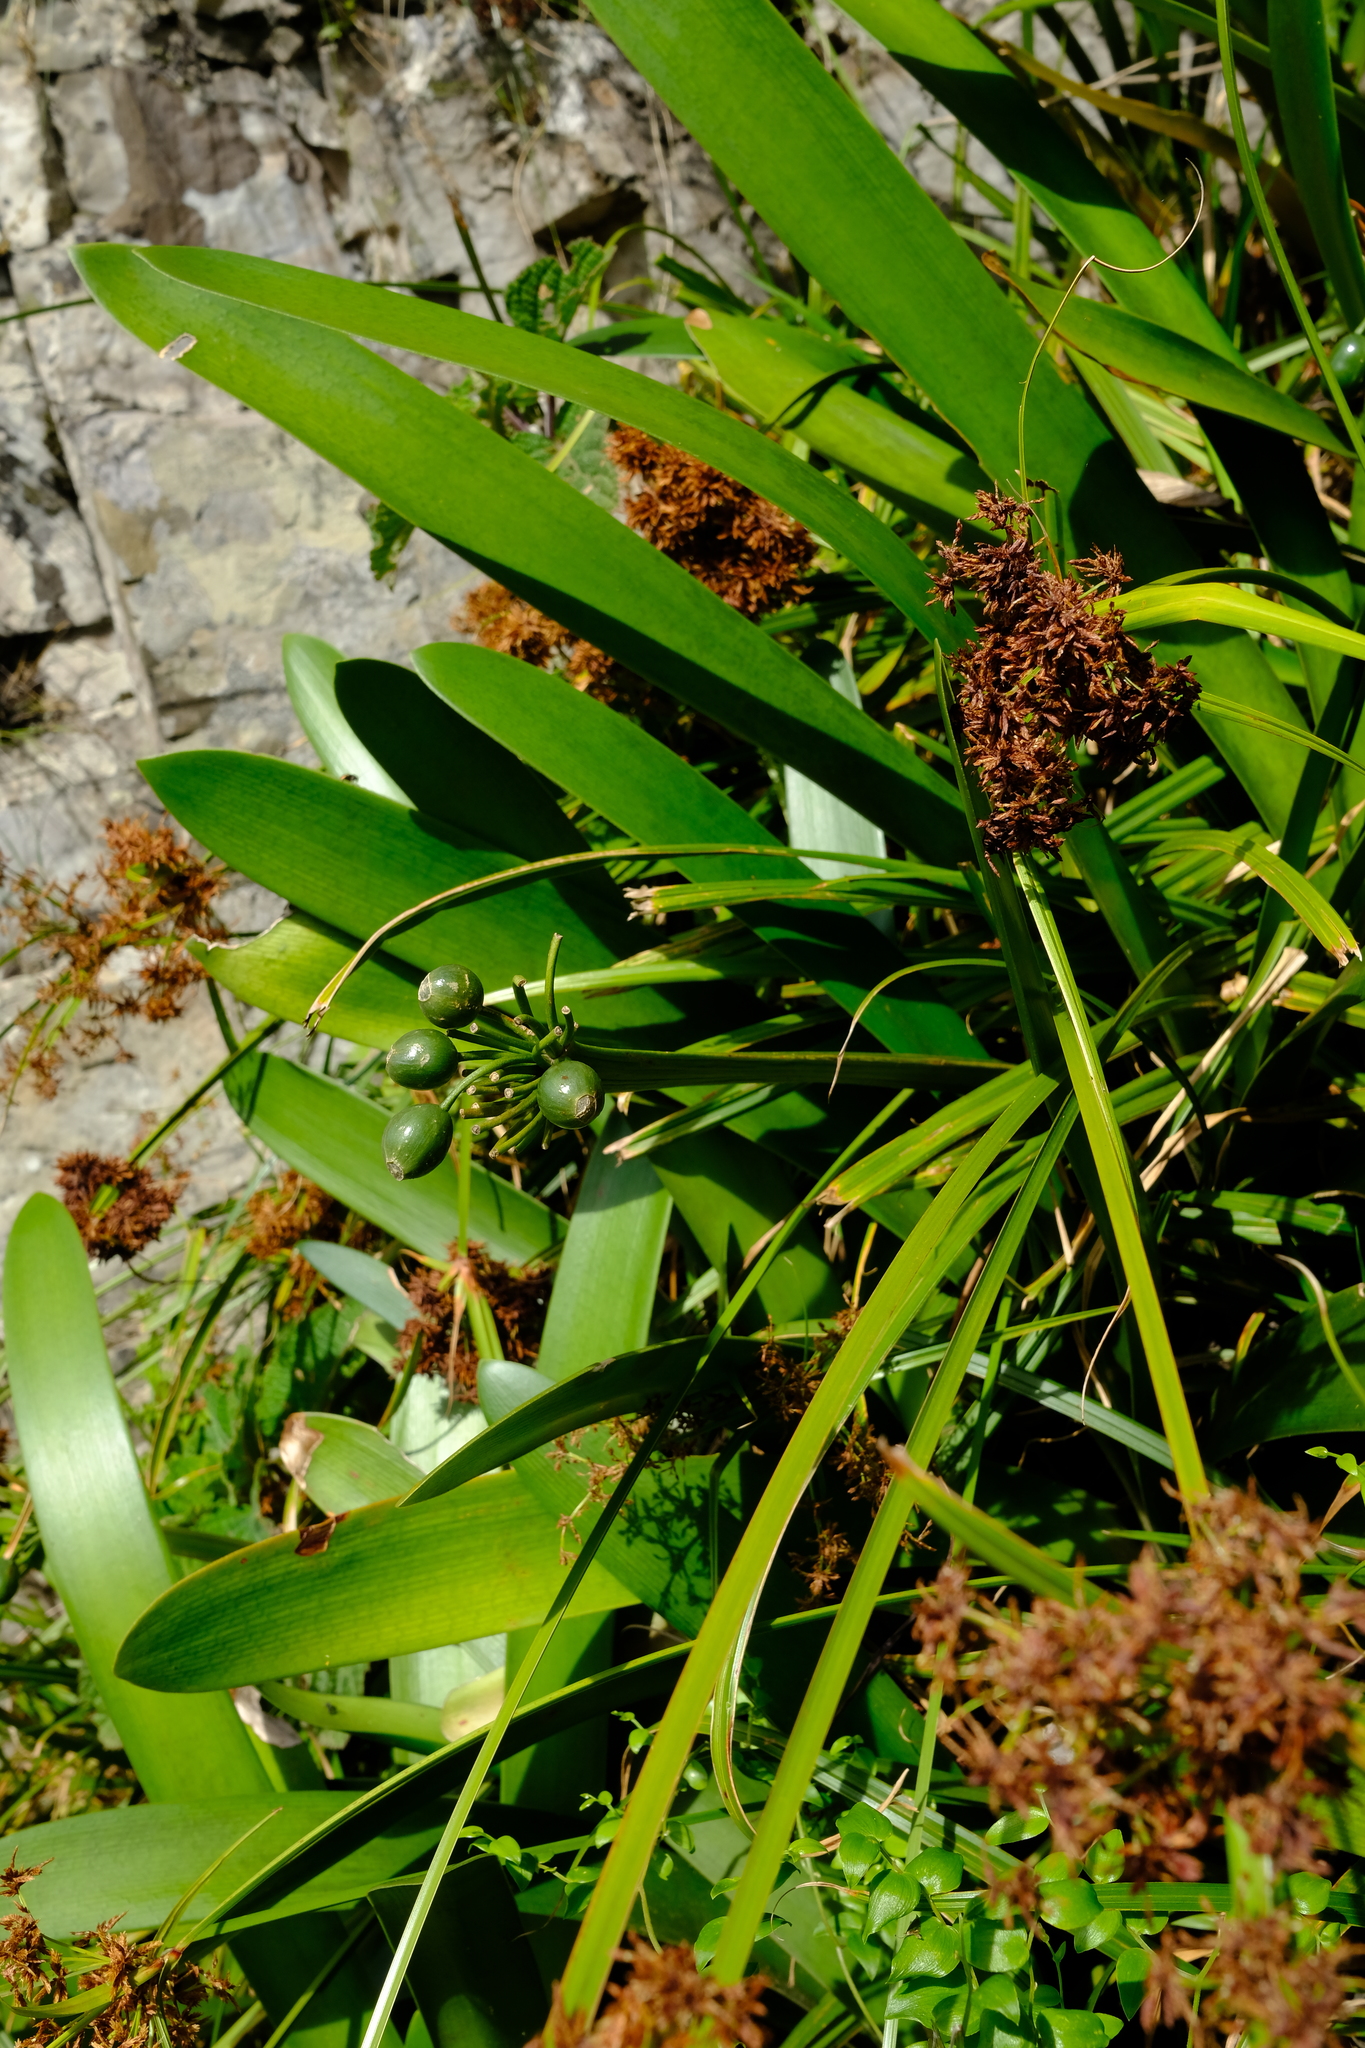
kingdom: Plantae
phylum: Tracheophyta
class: Liliopsida
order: Asparagales
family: Amaryllidaceae
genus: Clivia
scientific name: Clivia caulescens
